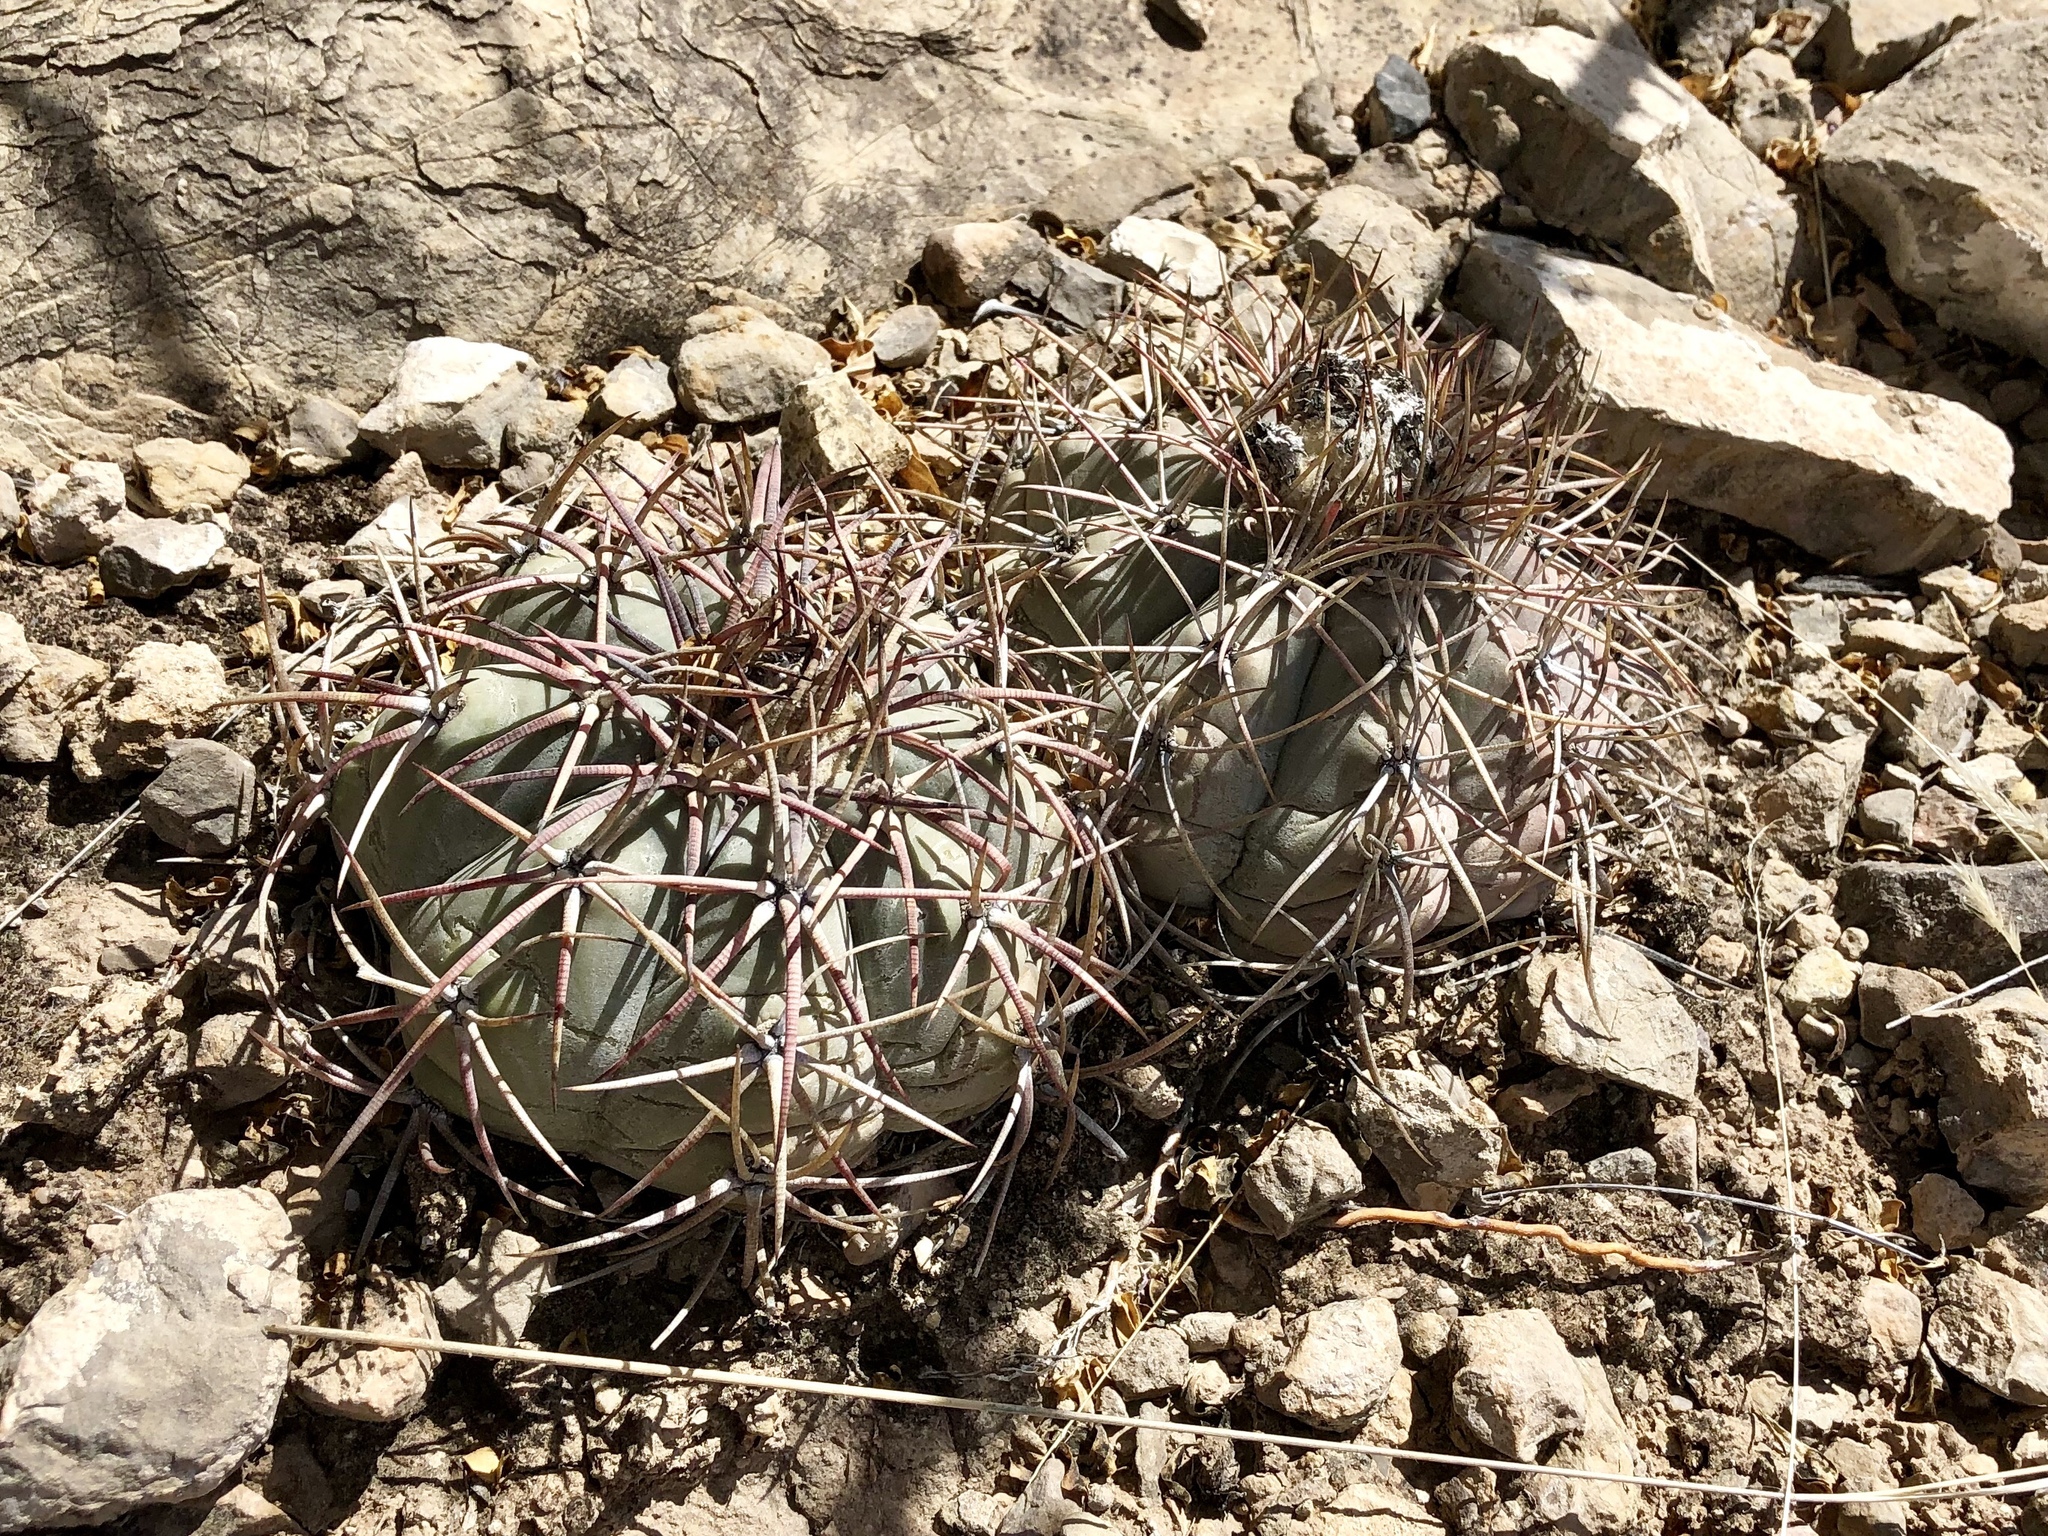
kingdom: Plantae
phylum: Tracheophyta
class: Magnoliopsida
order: Caryophyllales
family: Cactaceae
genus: Echinocactus
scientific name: Echinocactus horizonthalonius
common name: Devilshead
